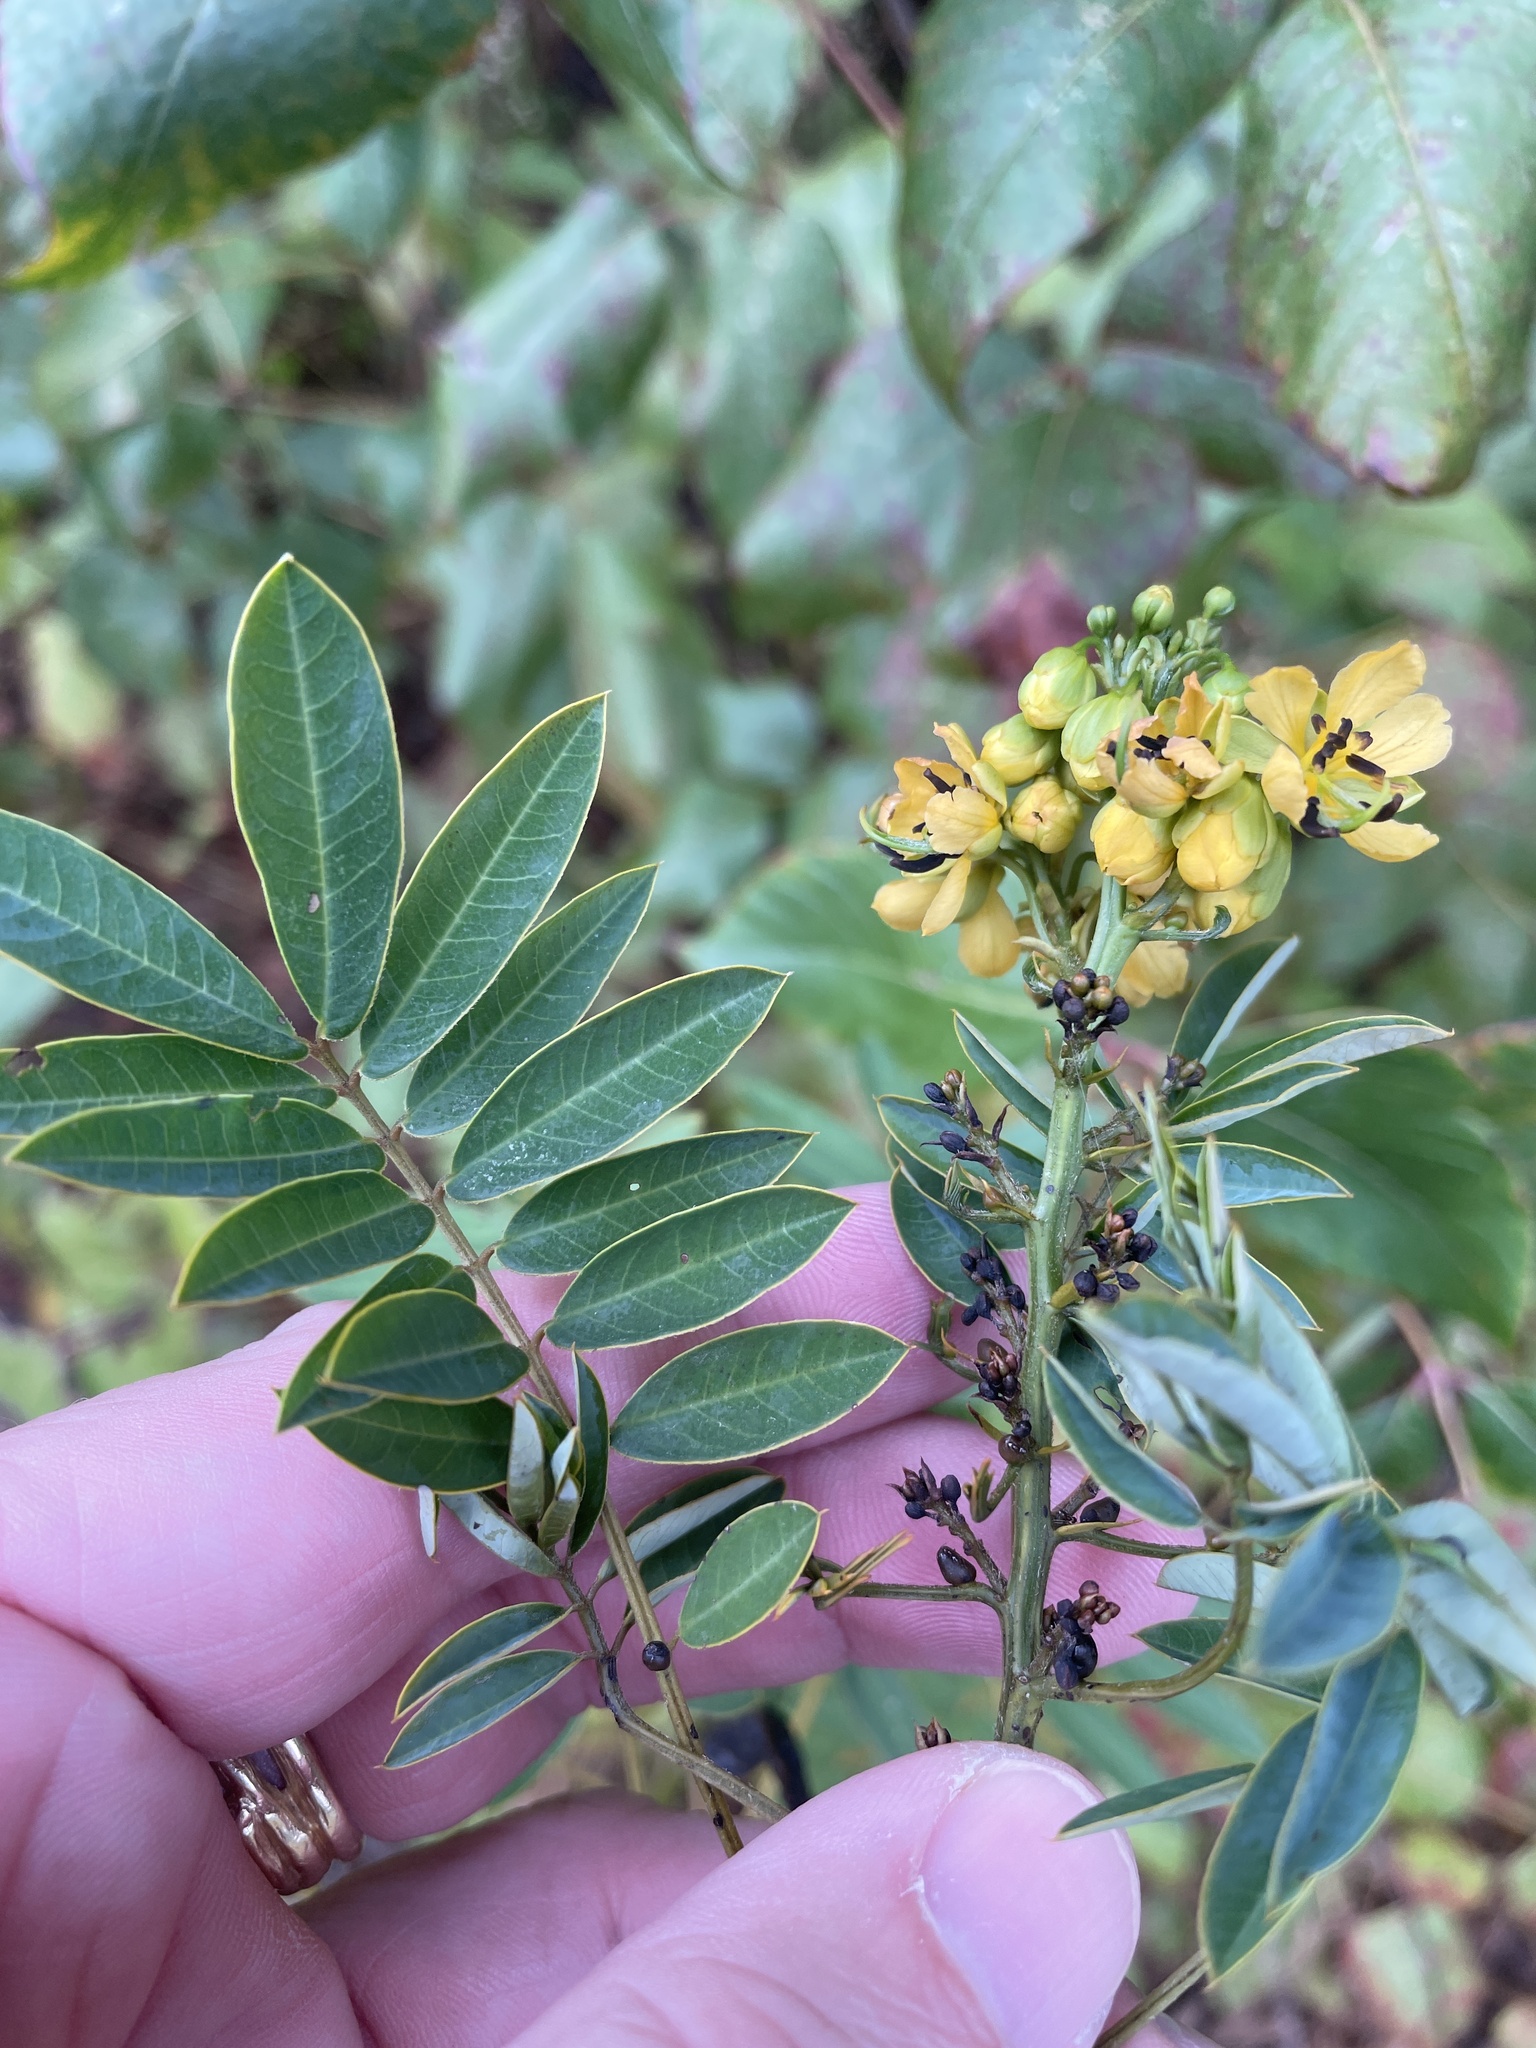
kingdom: Plantae
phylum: Tracheophyta
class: Magnoliopsida
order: Fabales
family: Fabaceae
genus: Senna
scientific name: Senna marilandica
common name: American senna
